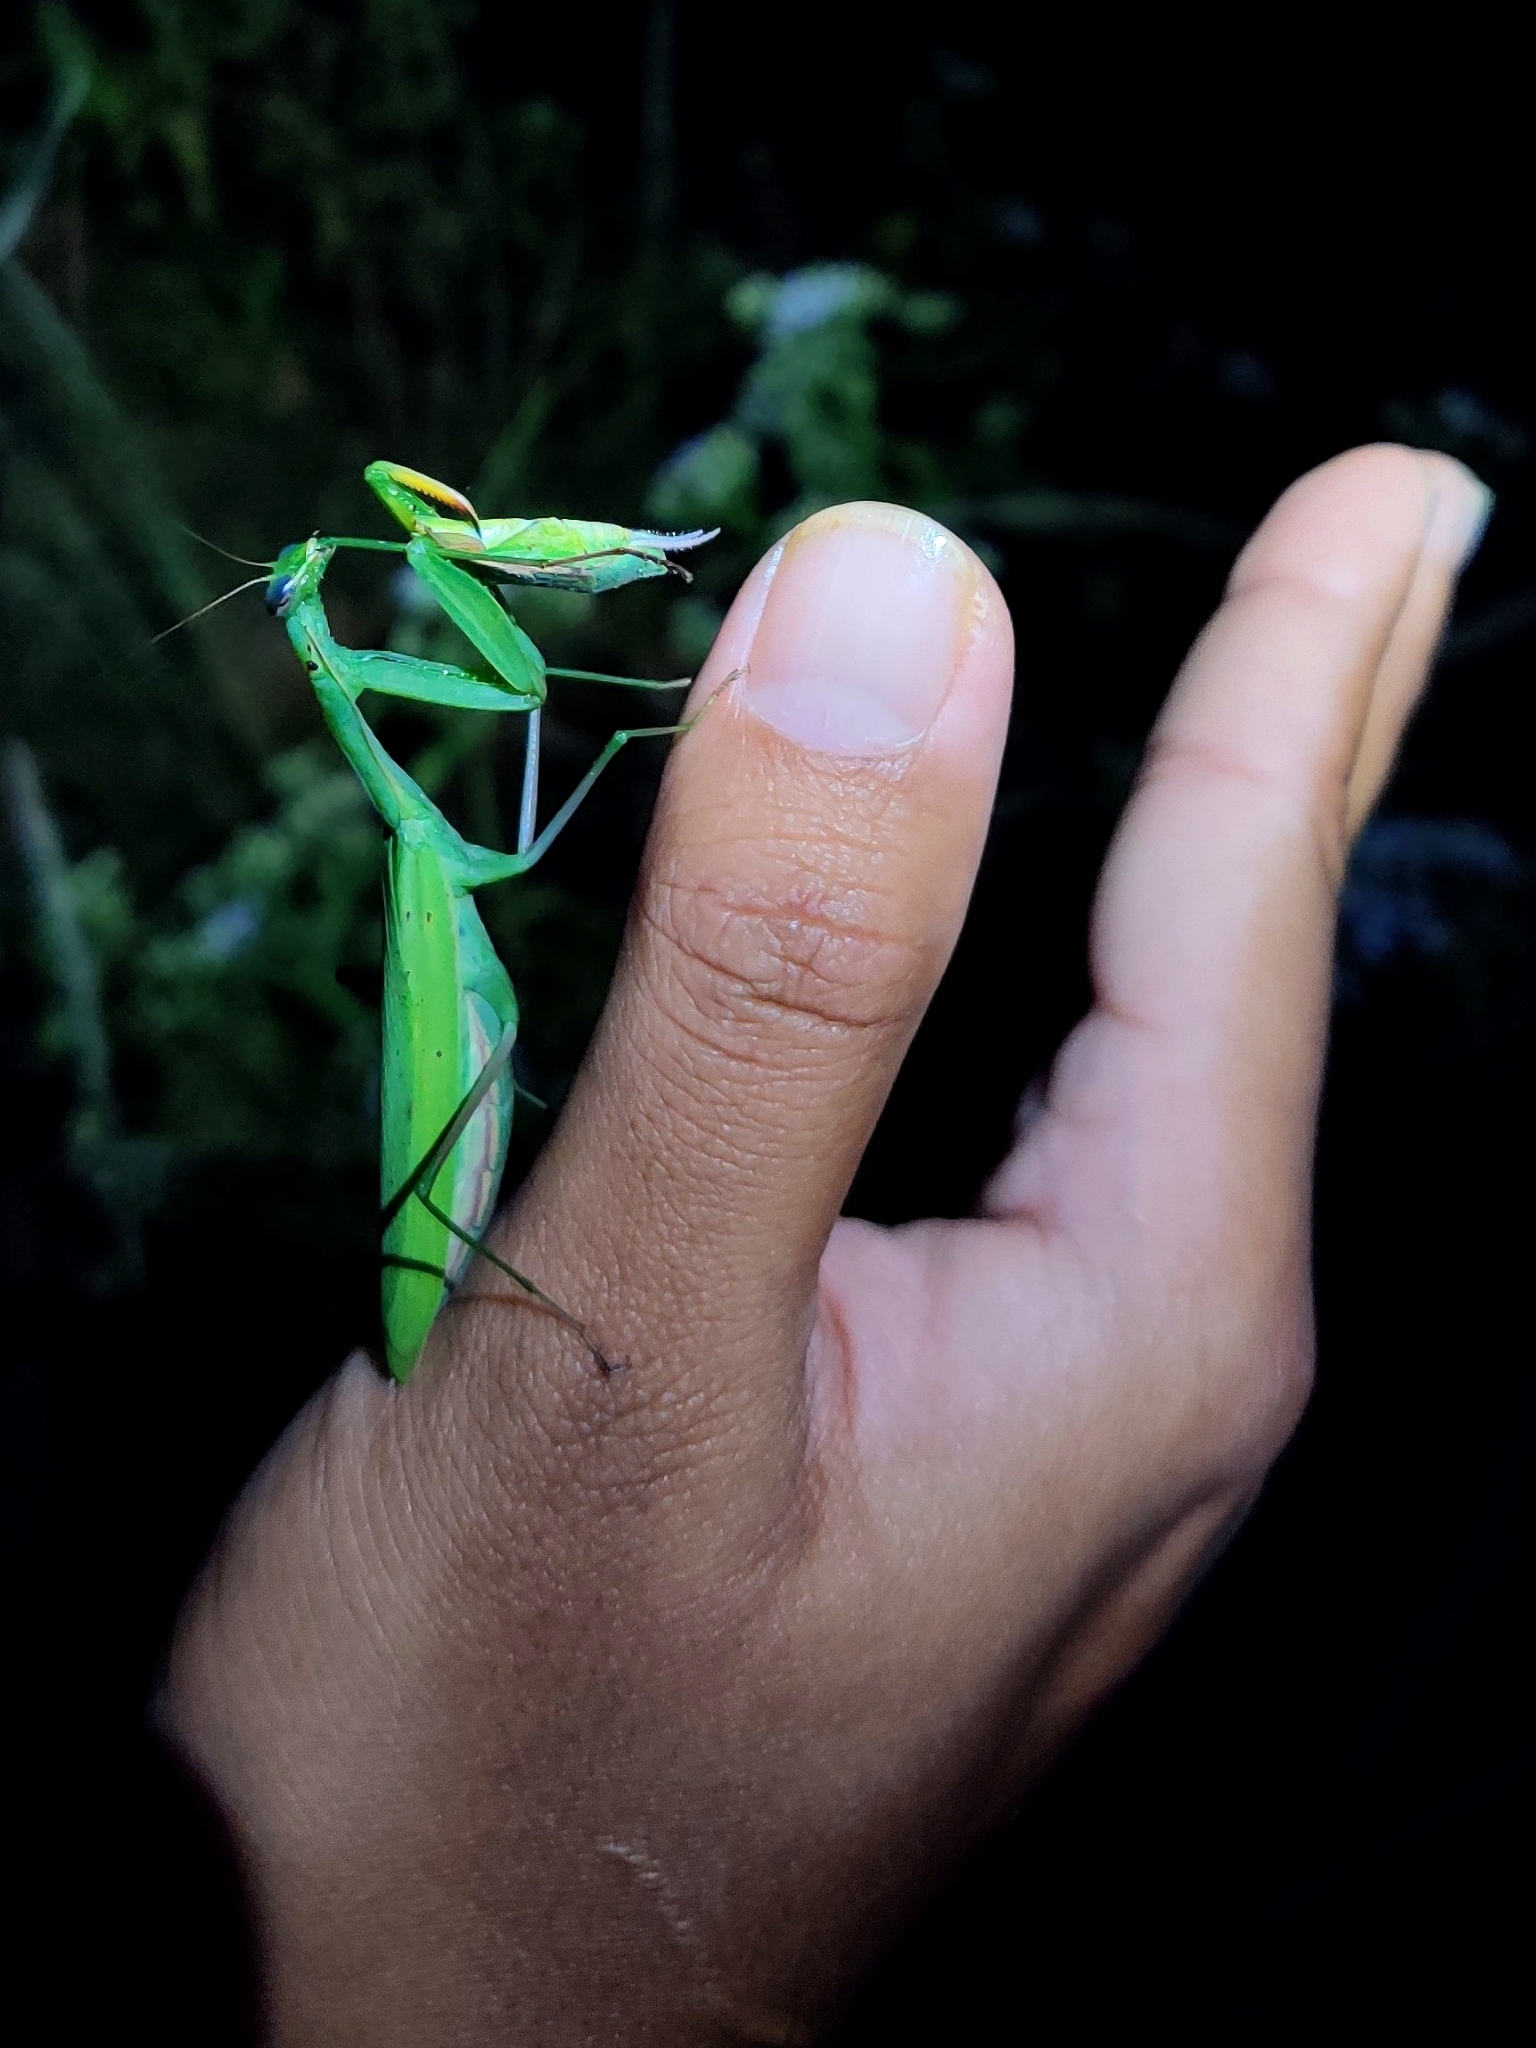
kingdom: Animalia
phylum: Arthropoda
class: Insecta
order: Mantodea
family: Mantidae
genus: Mantis
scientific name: Mantis religiosa
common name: Praying mantis
